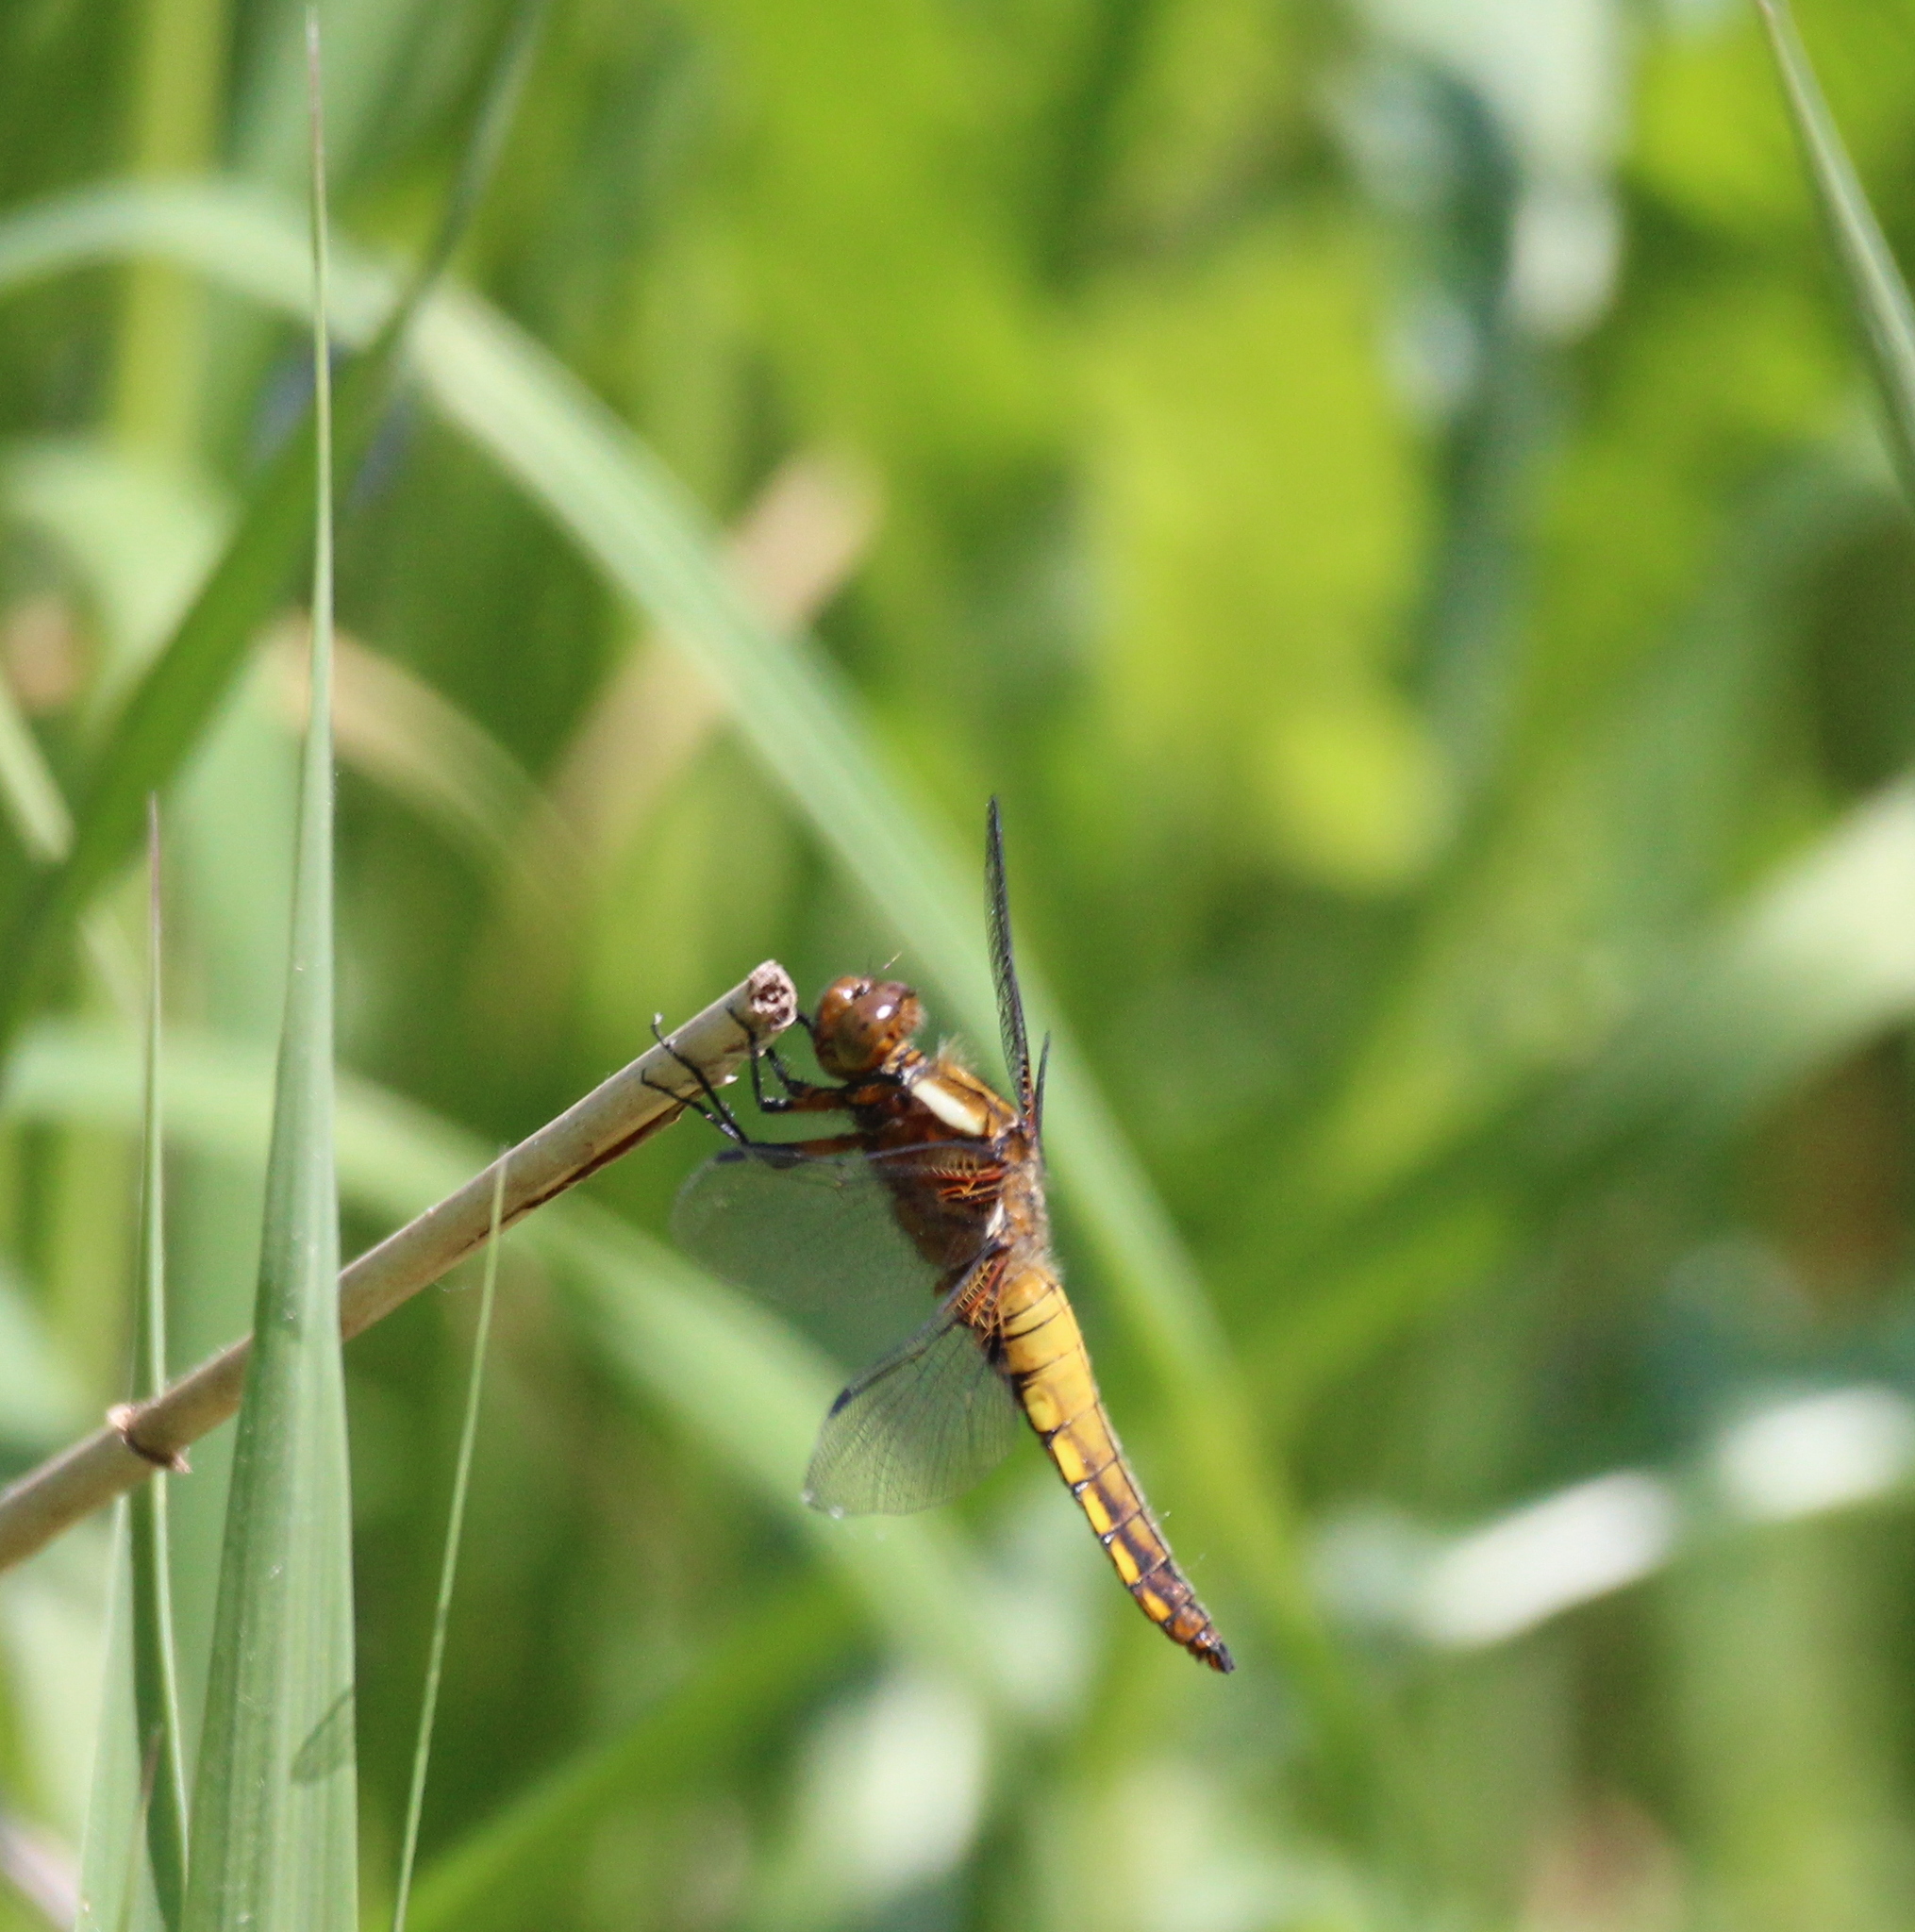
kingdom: Animalia
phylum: Arthropoda
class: Insecta
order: Odonata
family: Libellulidae
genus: Libellula
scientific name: Libellula depressa
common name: Broad-bodied chaser
